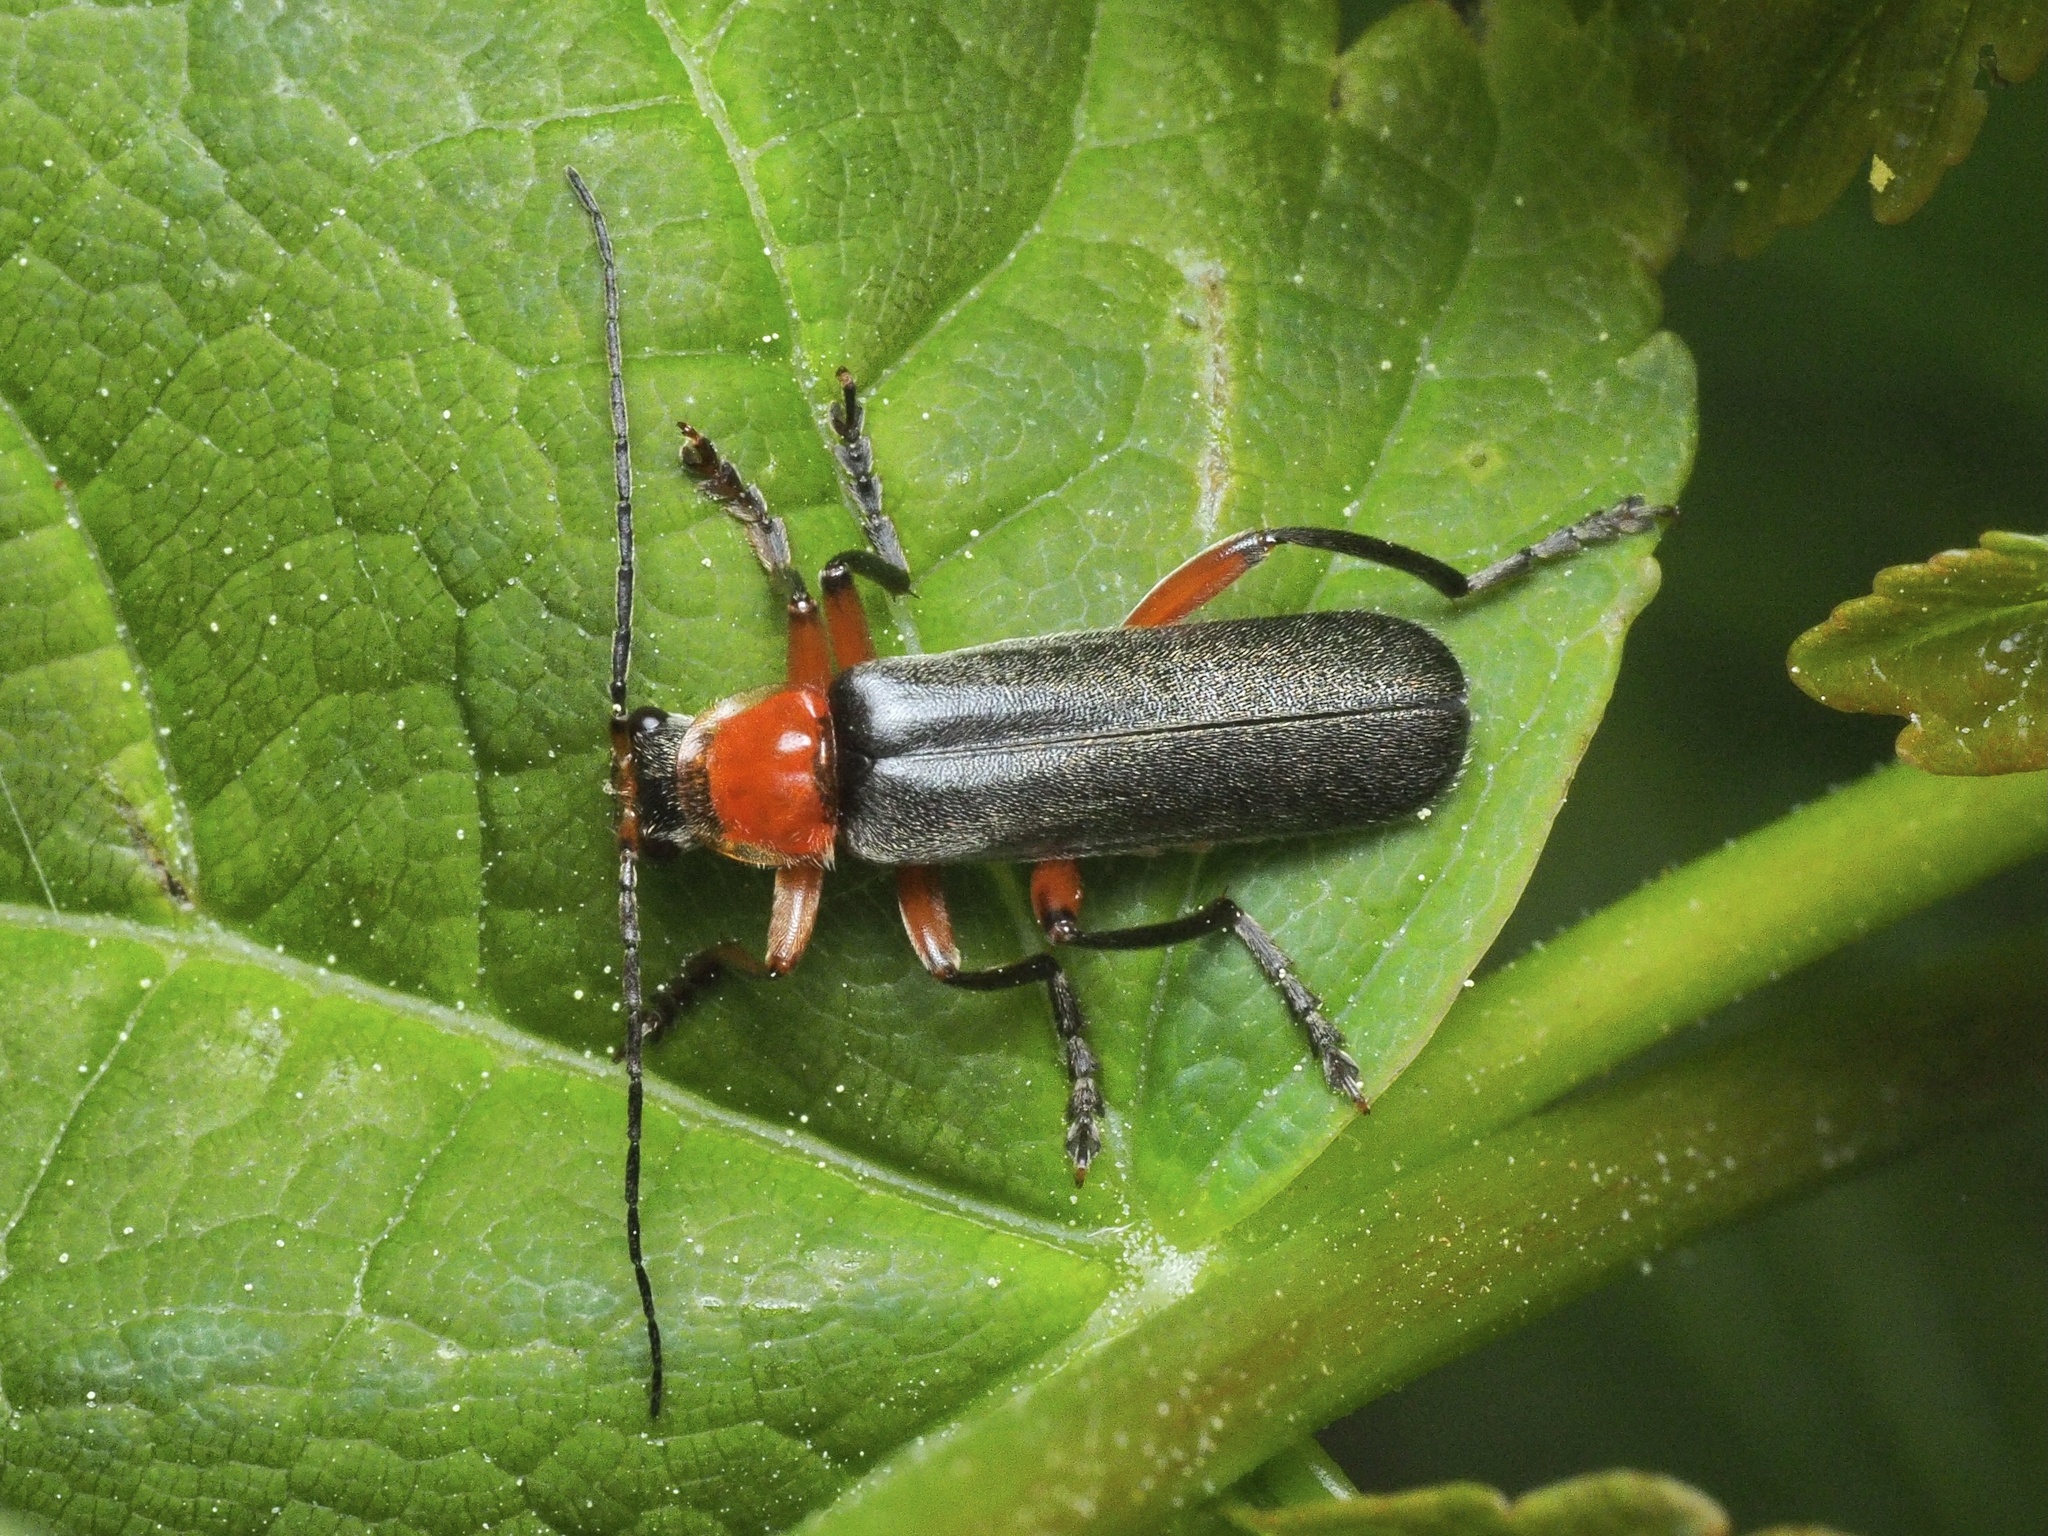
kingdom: Animalia
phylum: Arthropoda
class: Insecta
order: Coleoptera
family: Cantharidae
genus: Cantharis
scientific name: Cantharis pellucida
